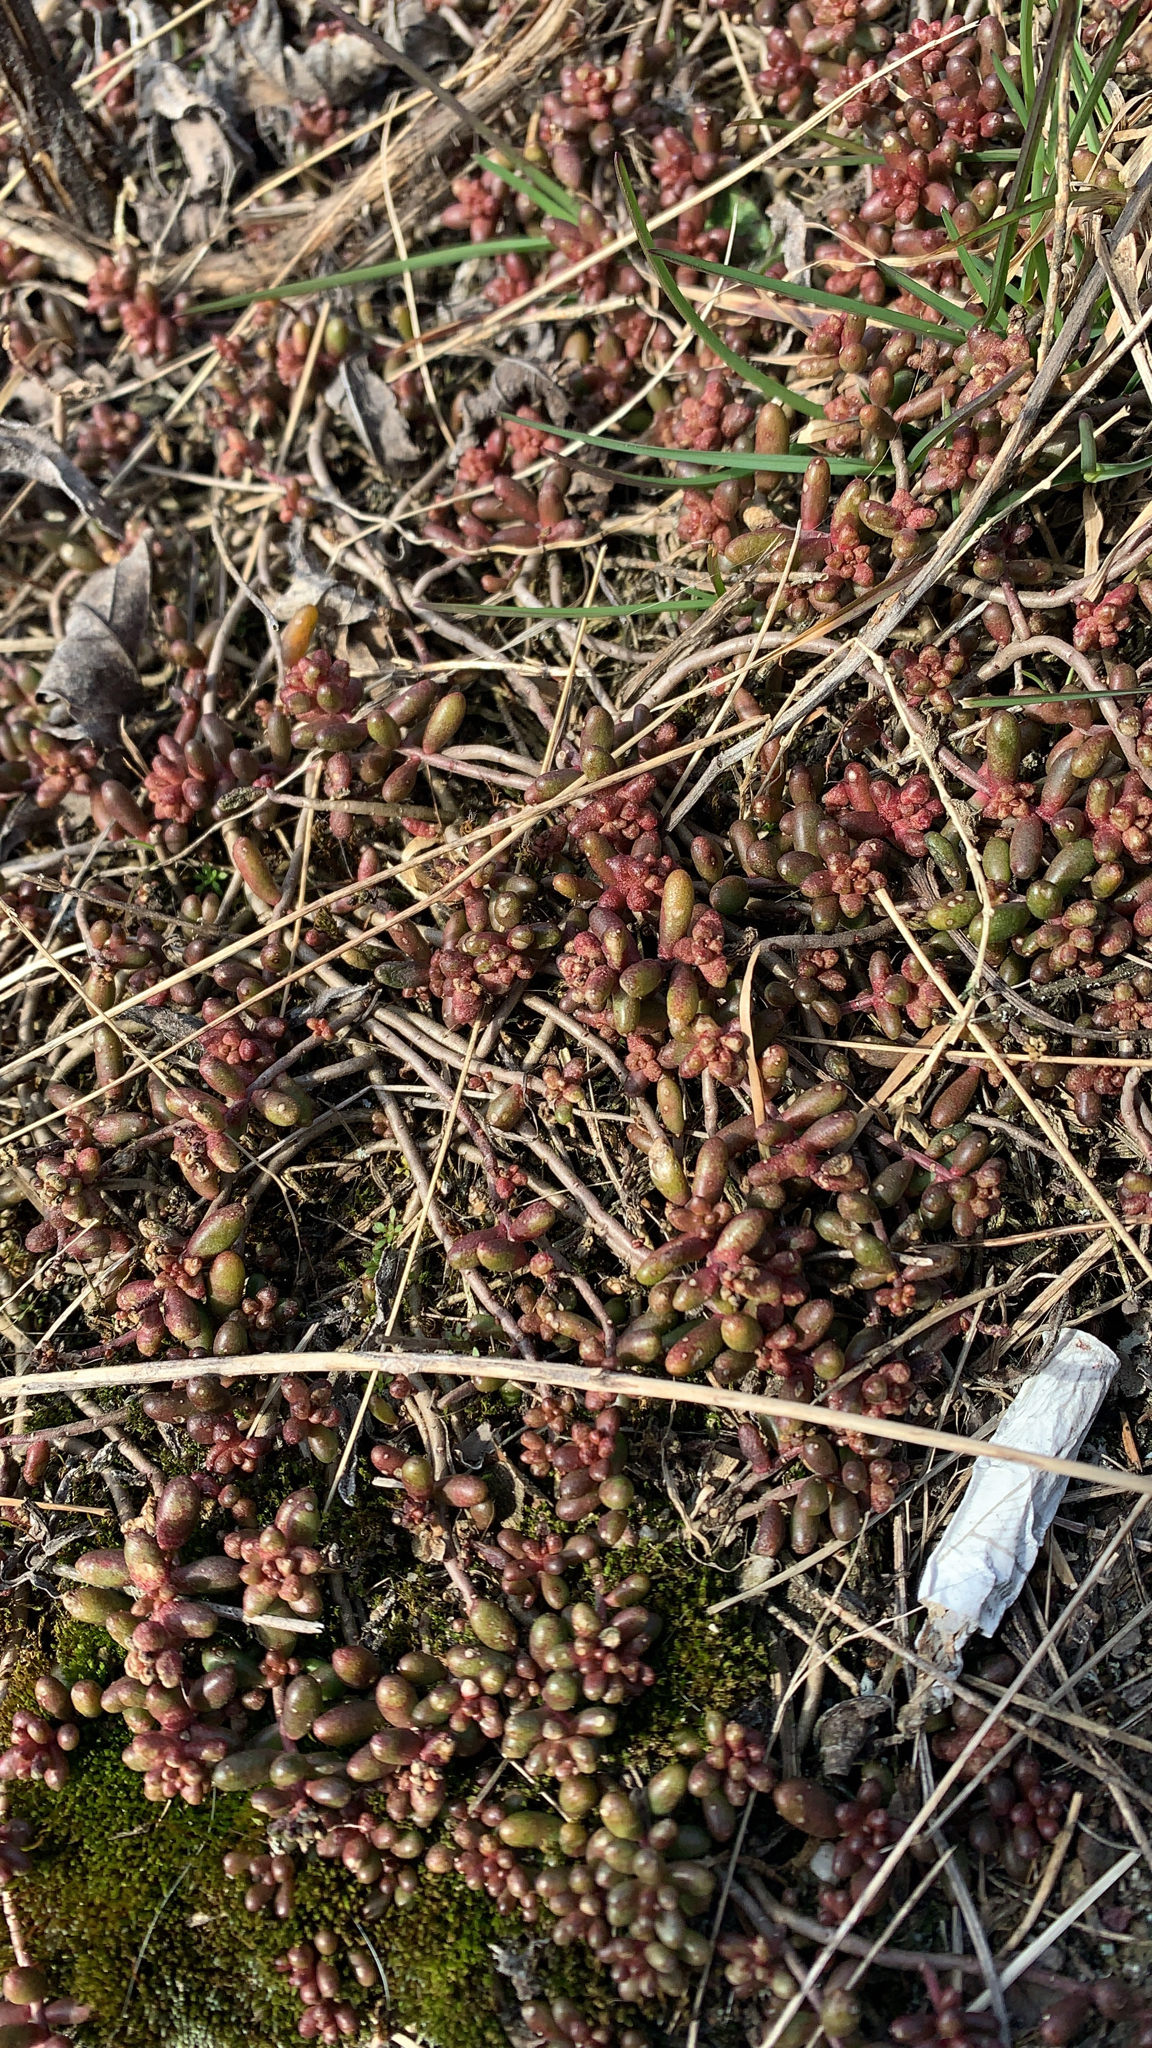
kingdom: Plantae
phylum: Tracheophyta
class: Magnoliopsida
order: Saxifragales
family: Crassulaceae
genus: Sedum
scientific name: Sedum album
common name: White stonecrop
